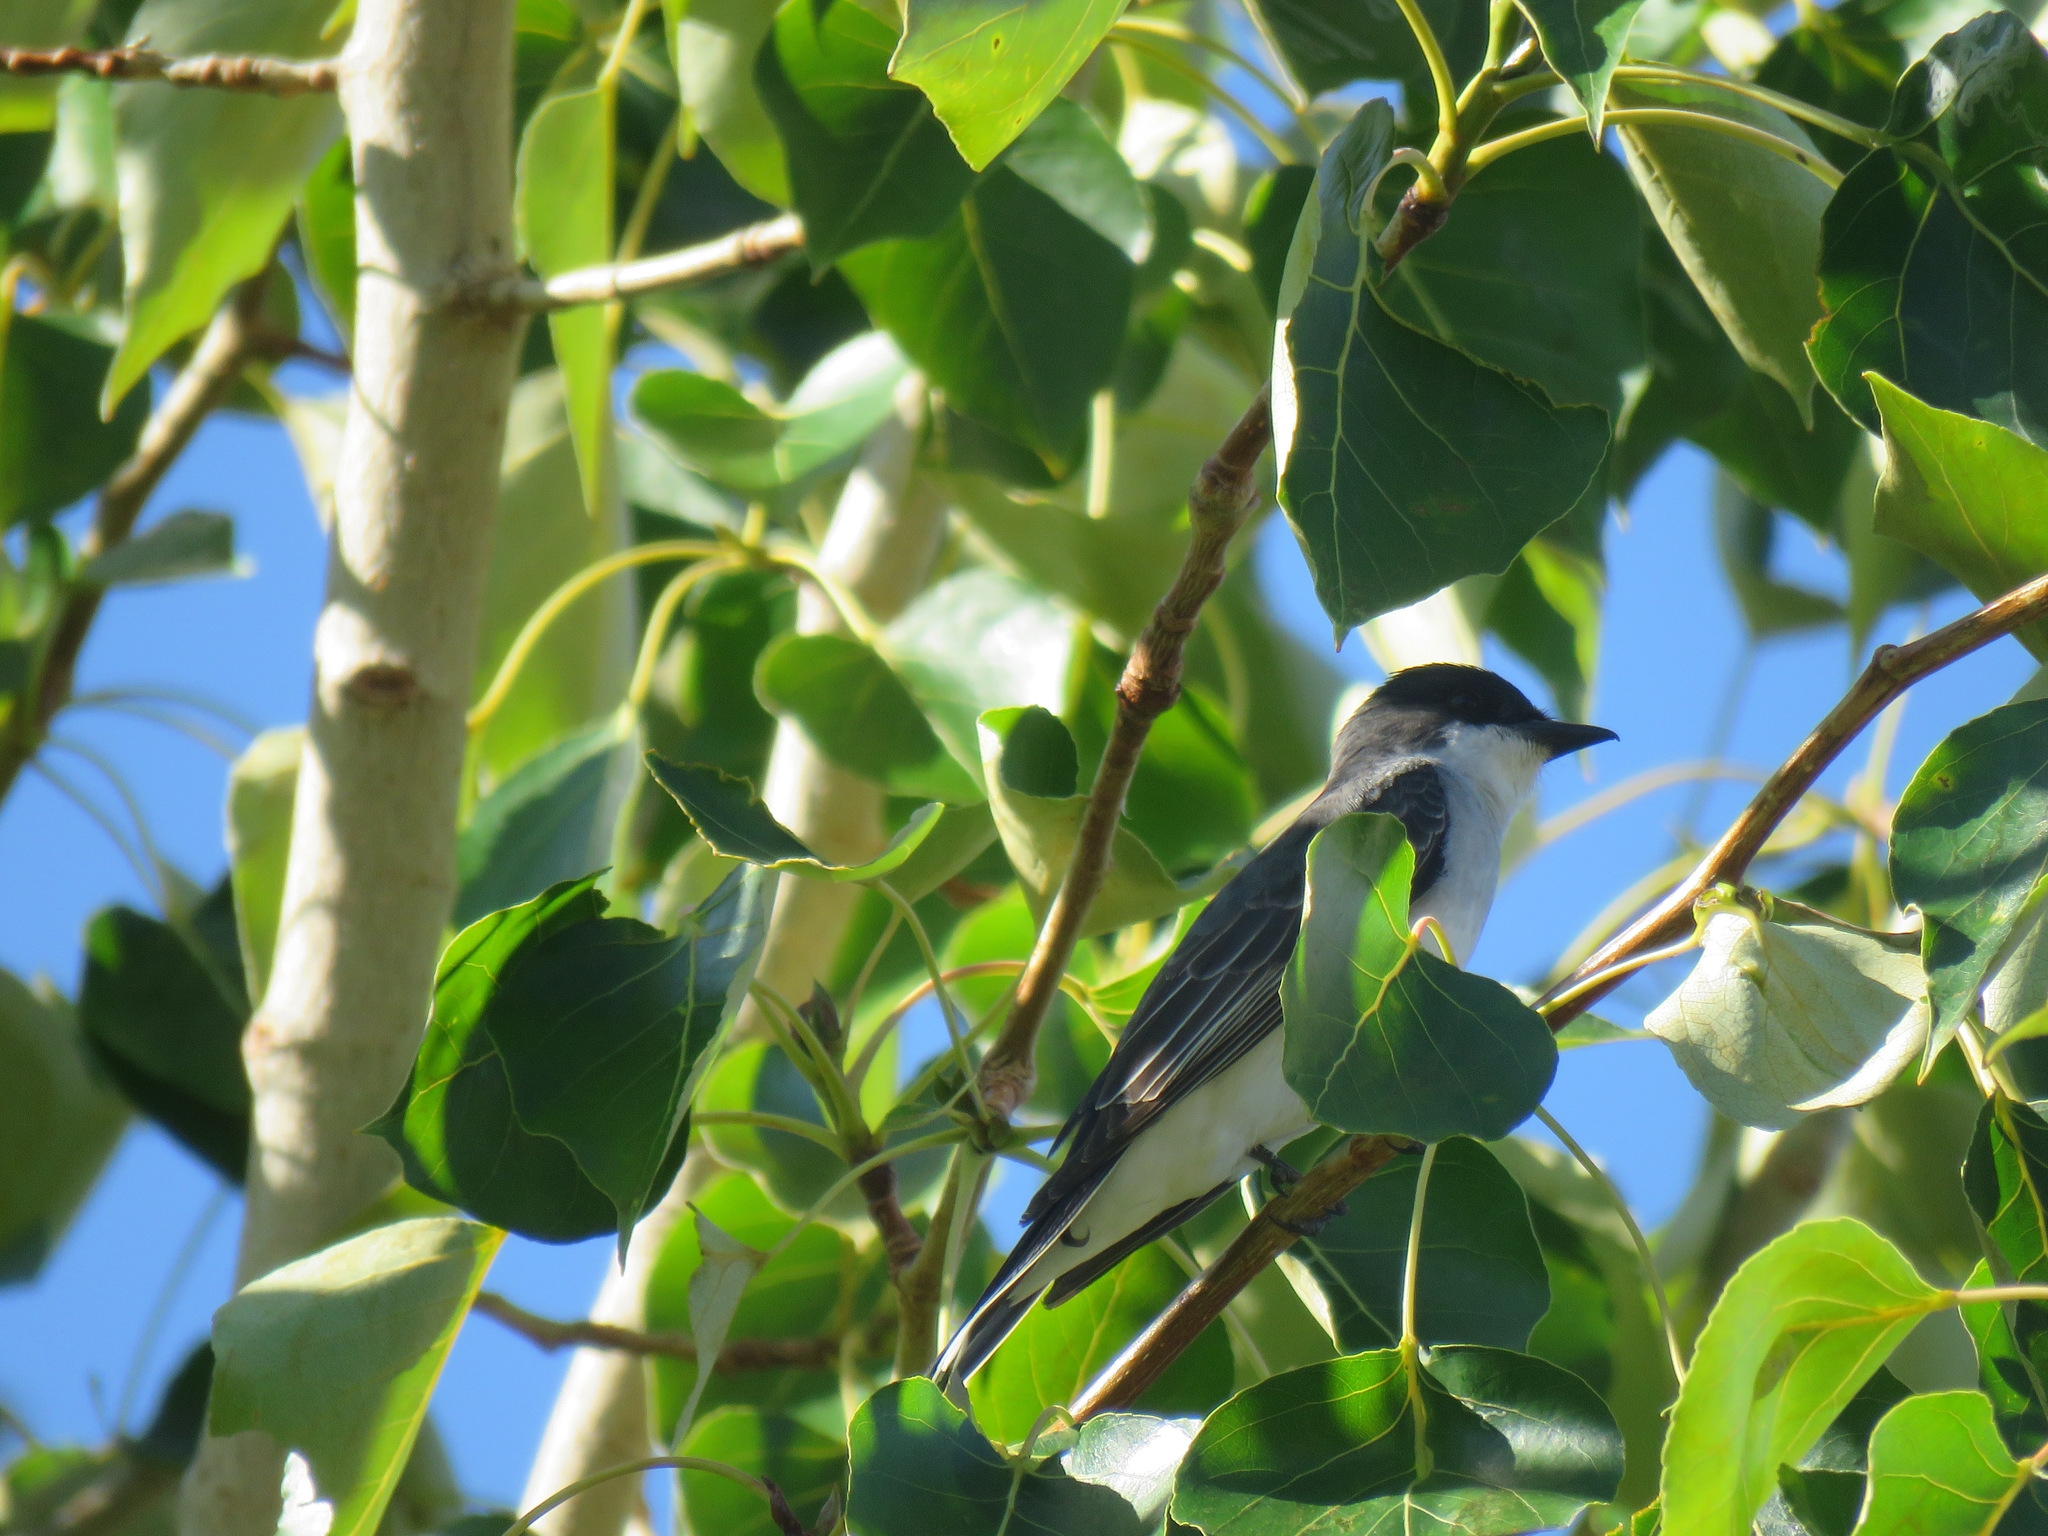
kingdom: Animalia
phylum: Chordata
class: Aves
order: Passeriformes
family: Tyrannidae
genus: Tyrannus
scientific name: Tyrannus tyrannus
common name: Eastern kingbird
